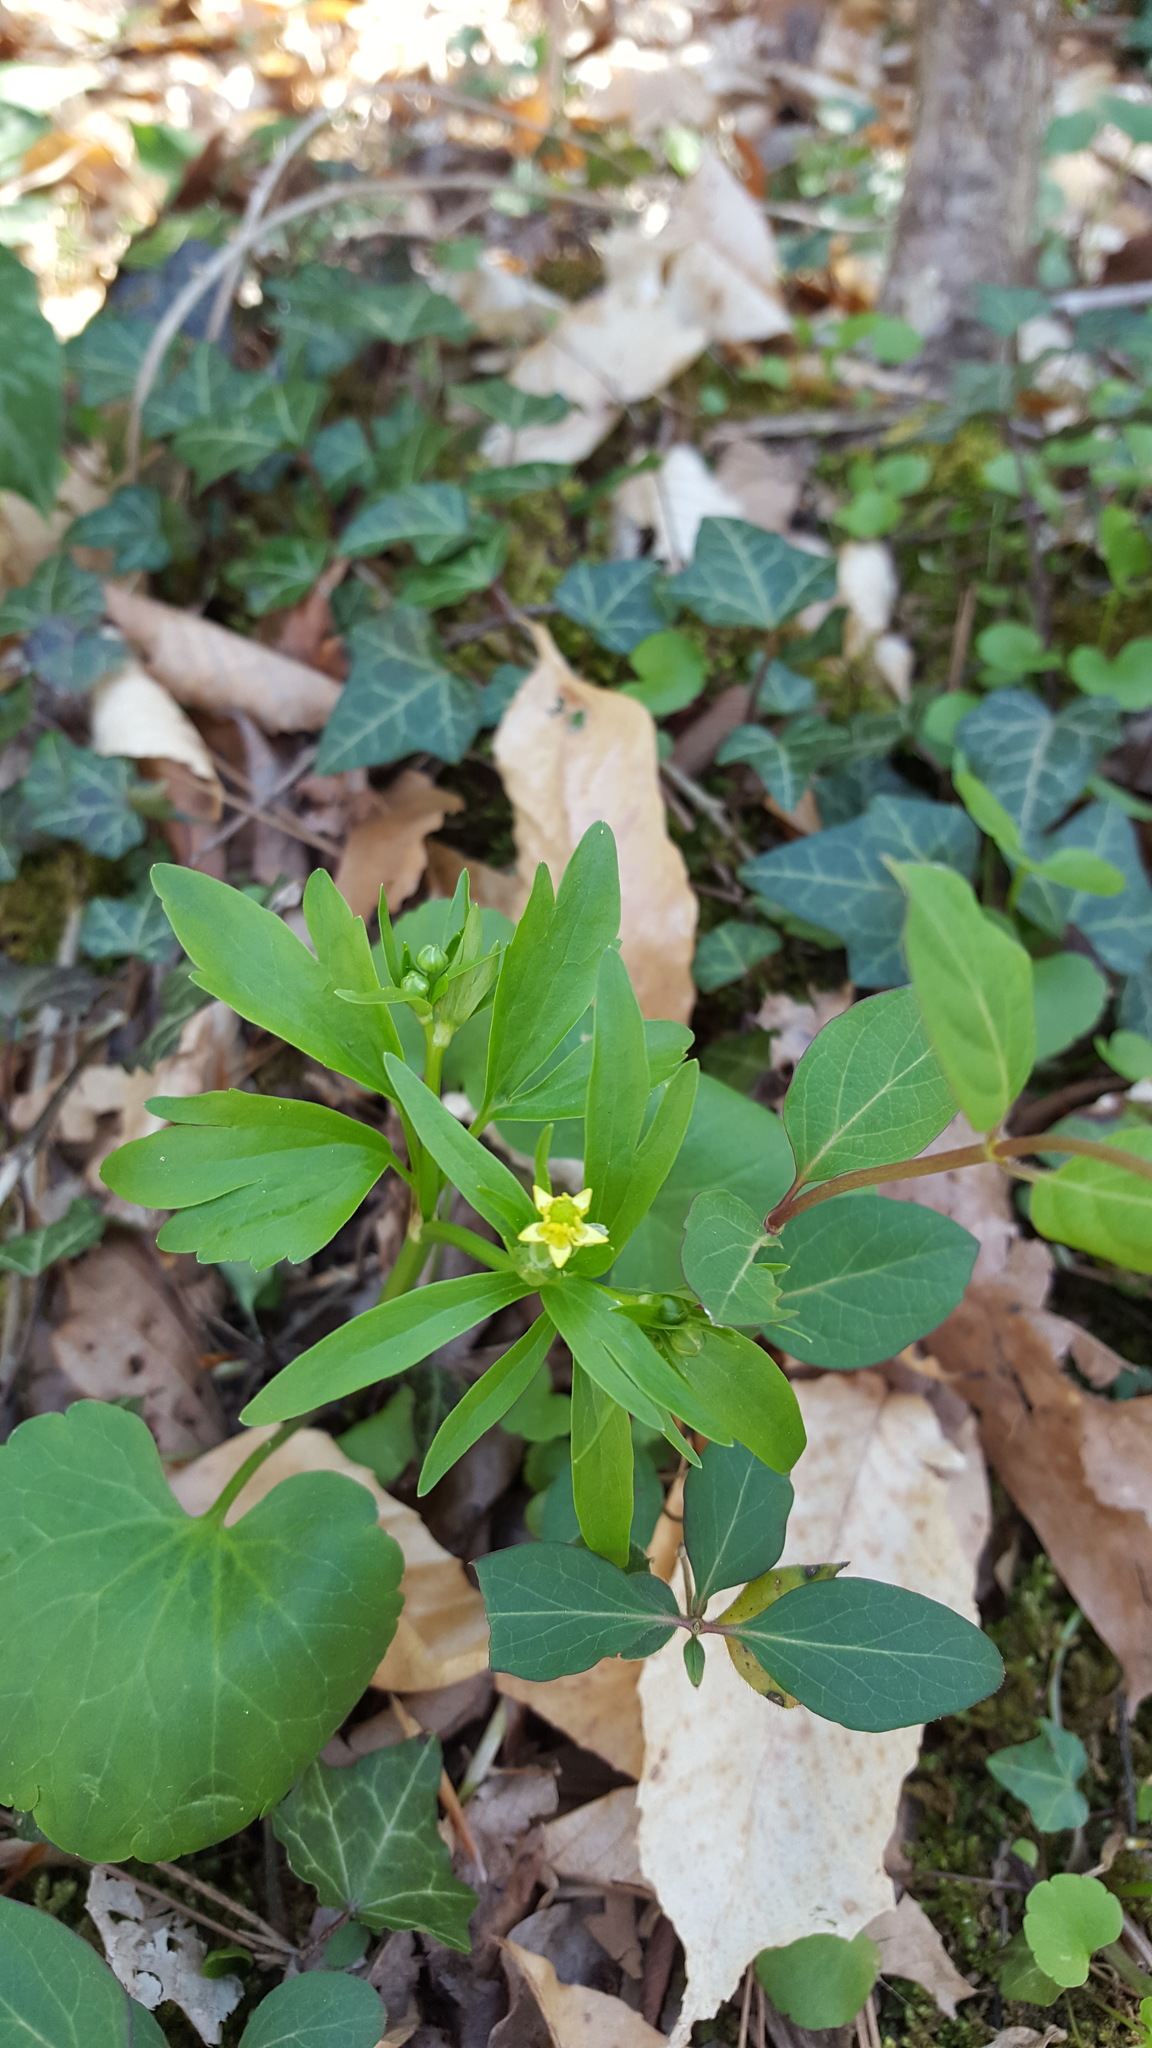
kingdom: Plantae
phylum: Tracheophyta
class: Magnoliopsida
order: Ranunculales
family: Ranunculaceae
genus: Ranunculus
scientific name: Ranunculus abortivus
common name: Early wood buttercup
